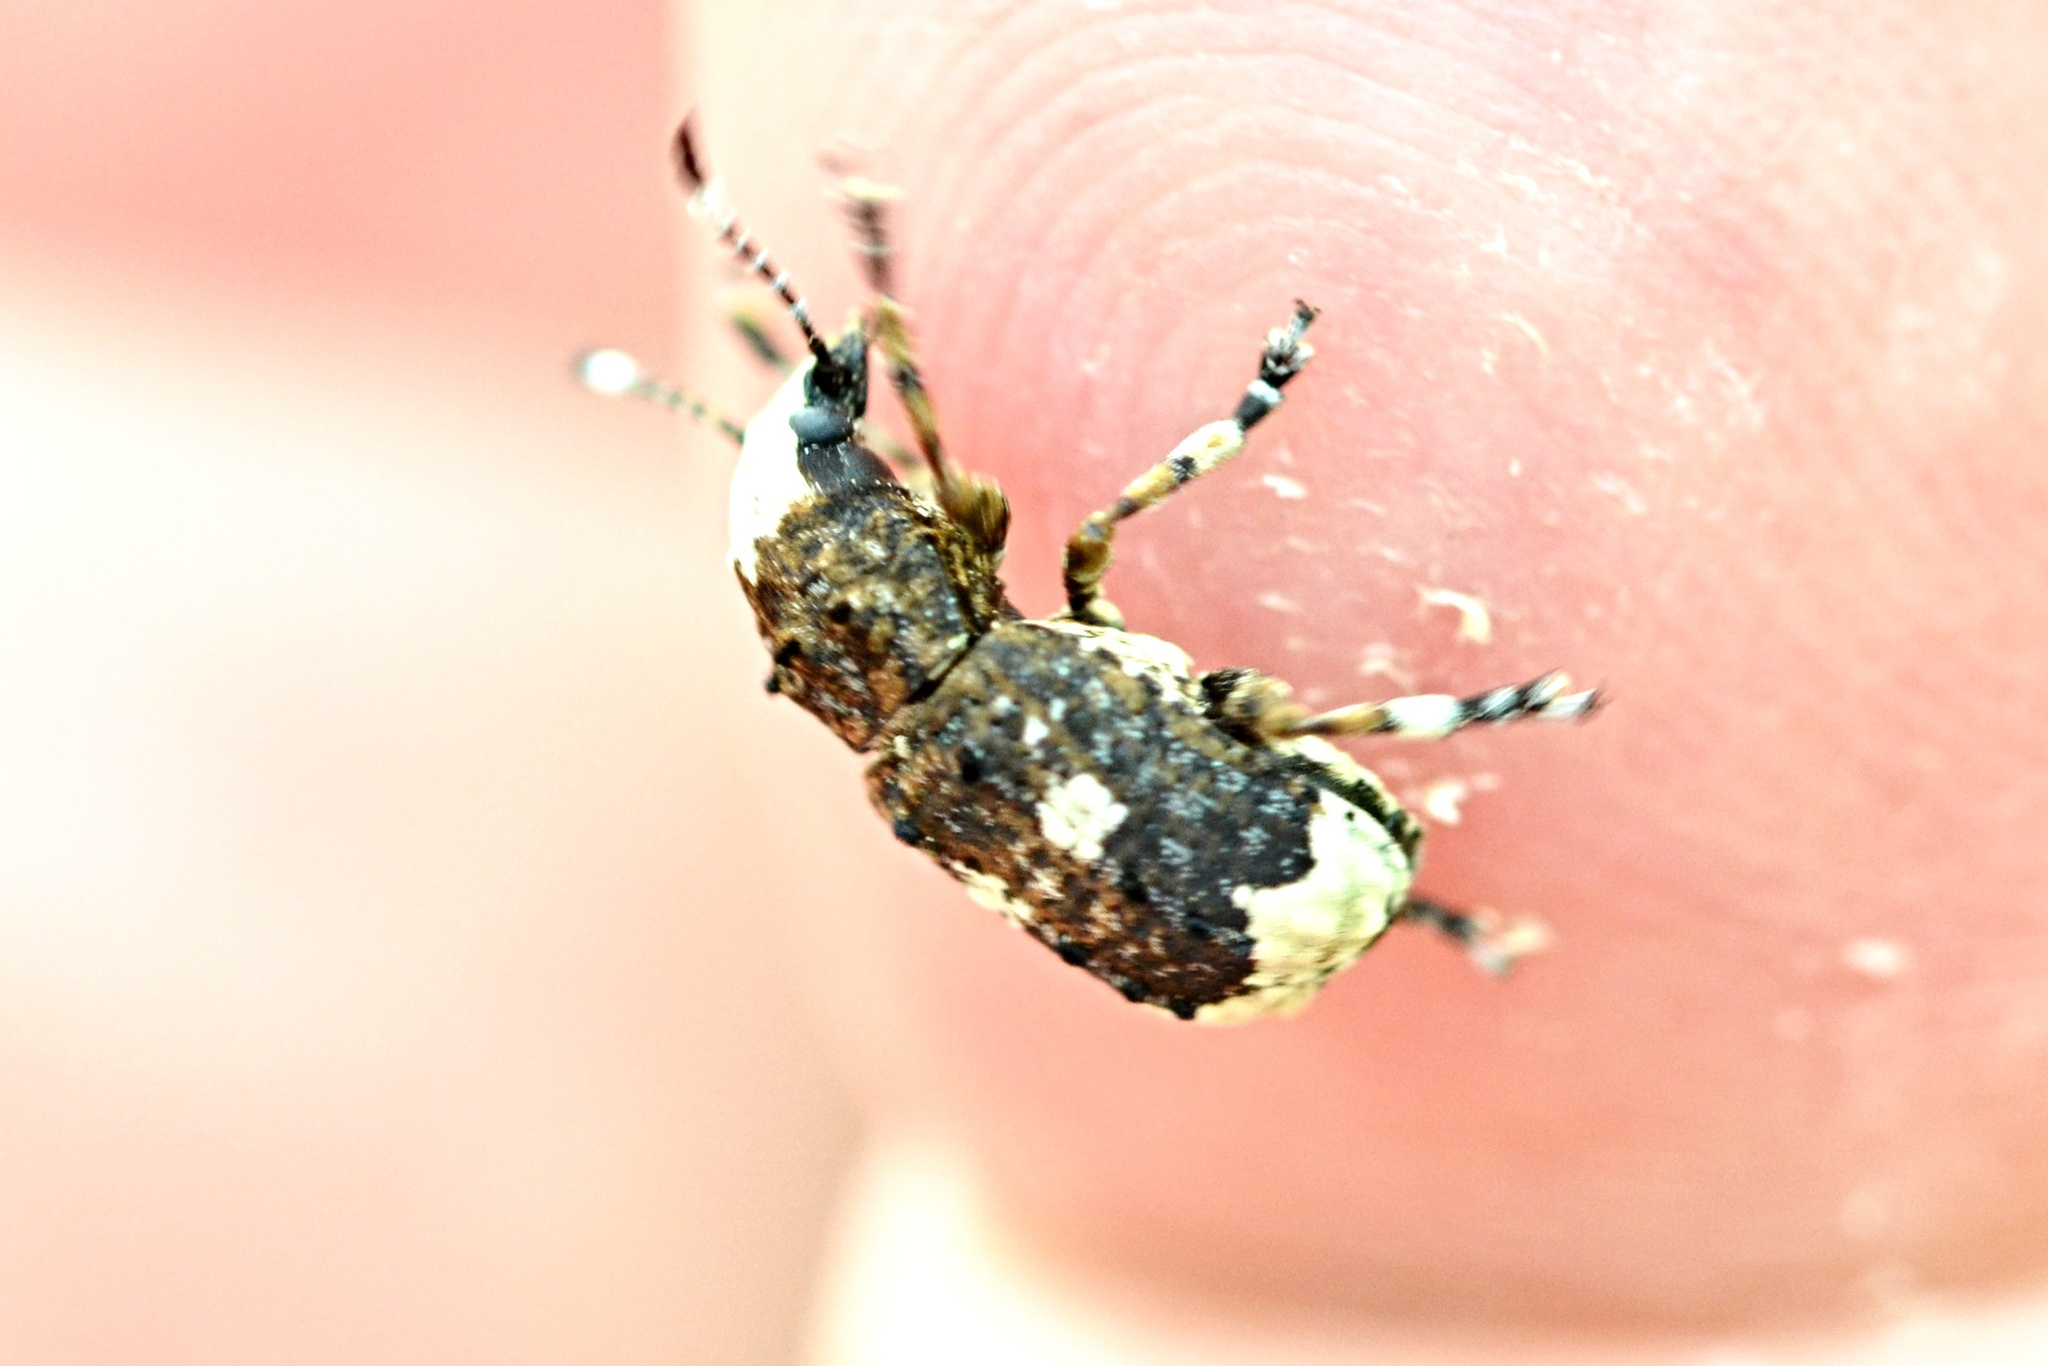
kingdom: Animalia
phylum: Arthropoda
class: Insecta
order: Coleoptera
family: Anthribidae
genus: Platystomos
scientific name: Platystomos albinus
